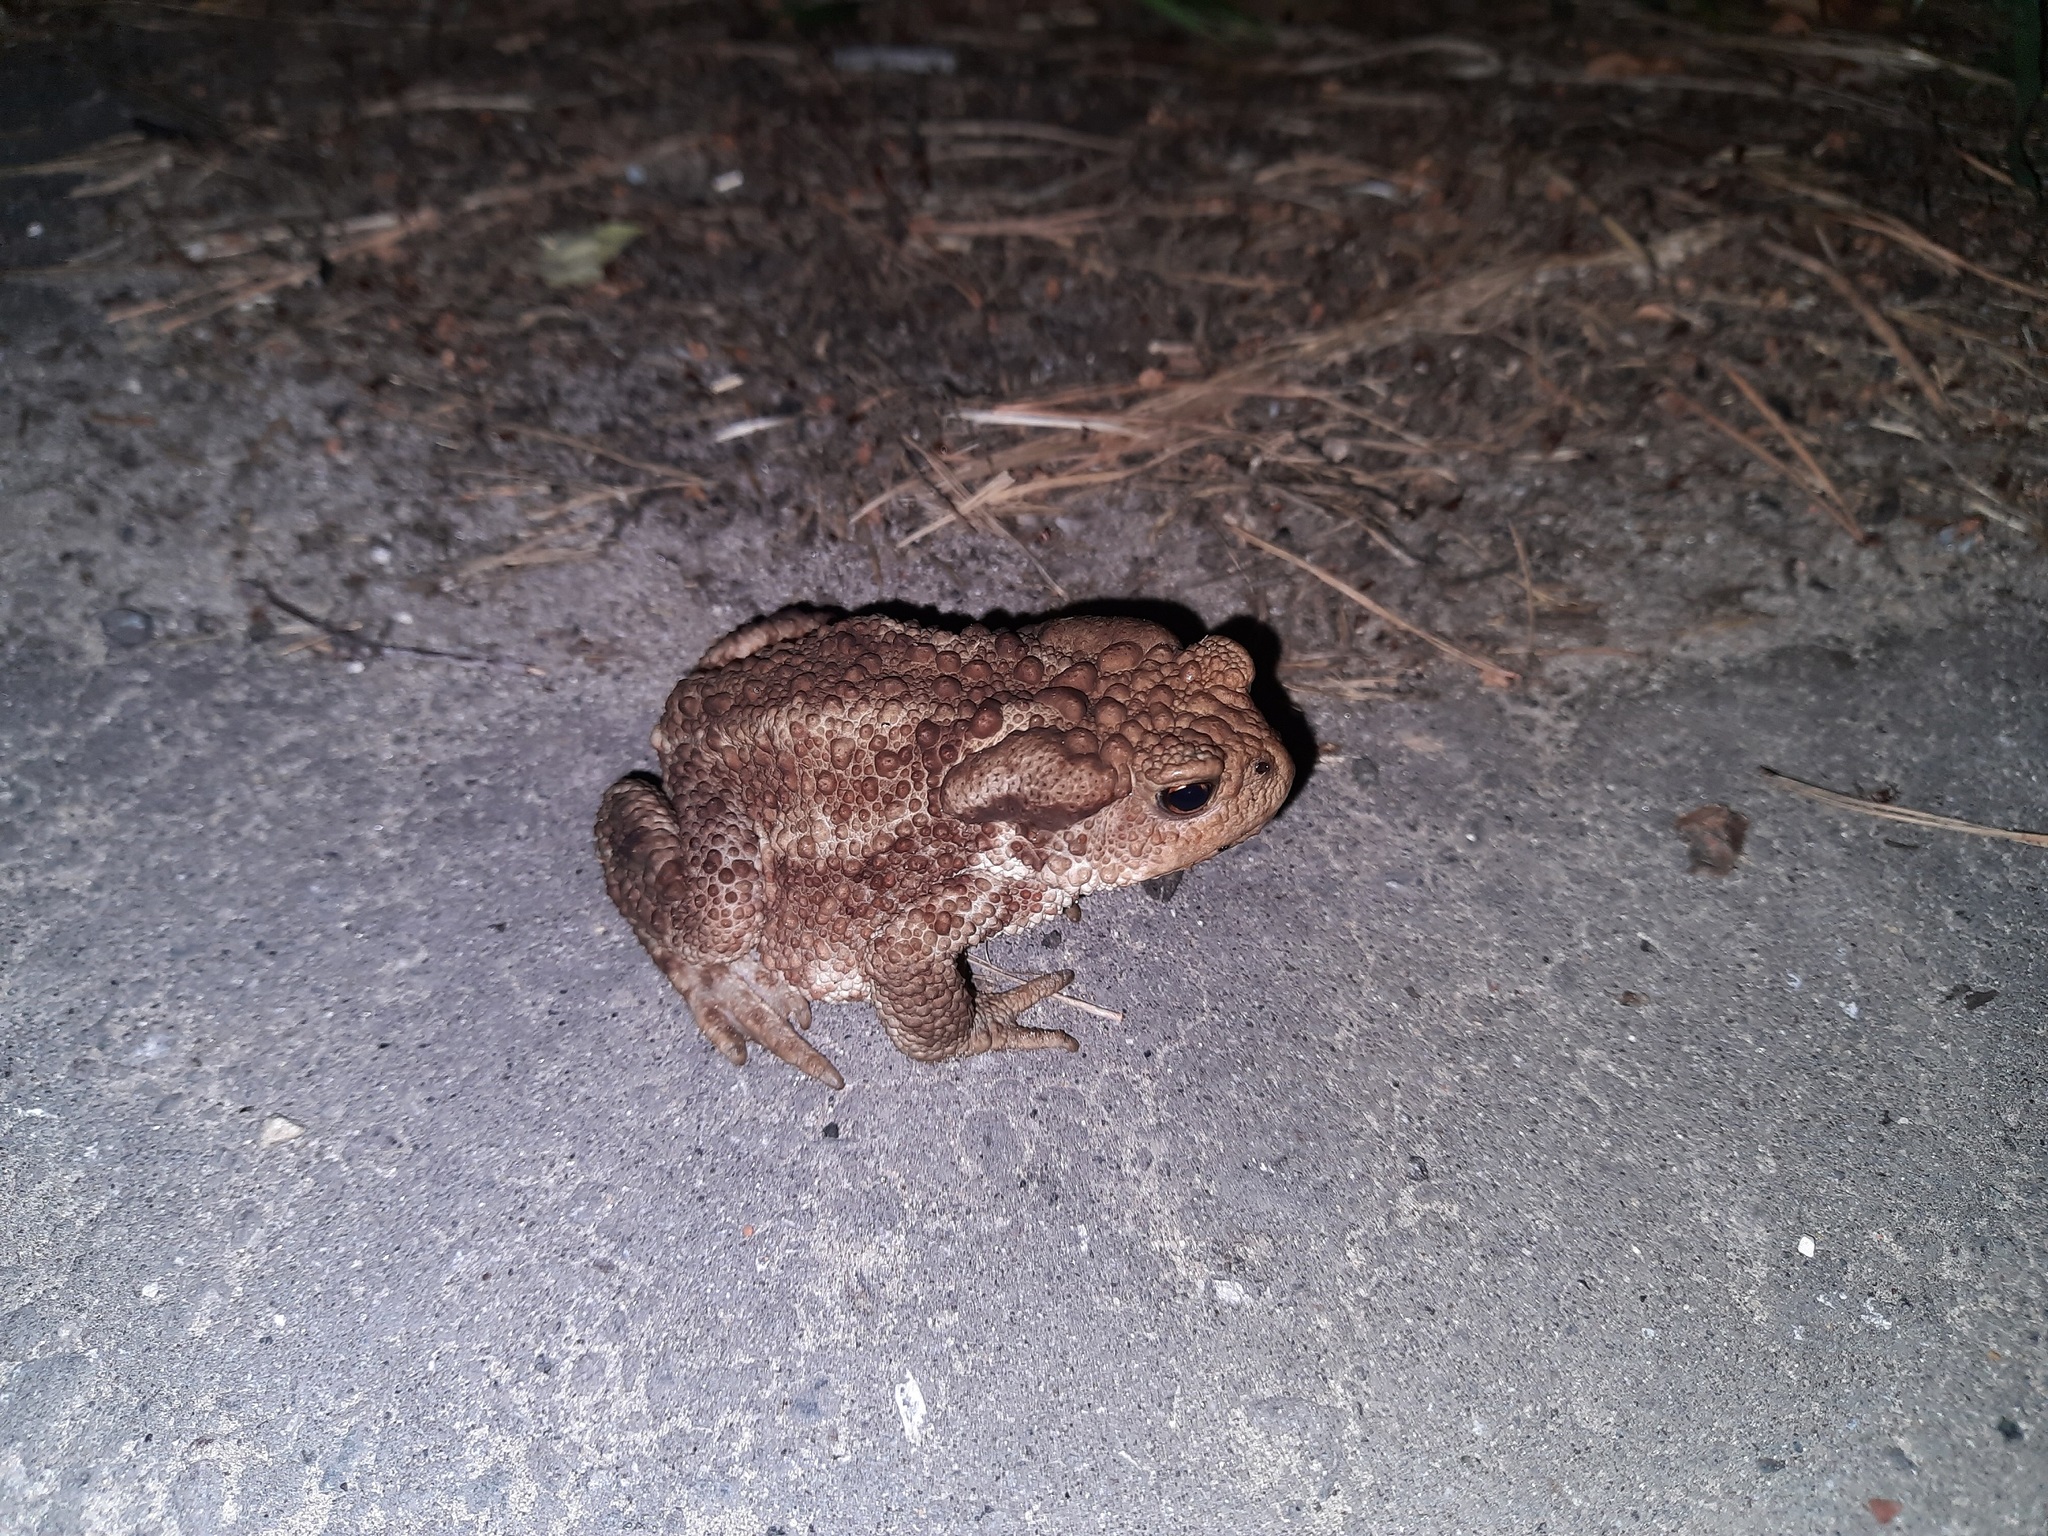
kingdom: Animalia
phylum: Chordata
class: Amphibia
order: Anura
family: Bufonidae
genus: Bufo
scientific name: Bufo bufo
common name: Common toad
